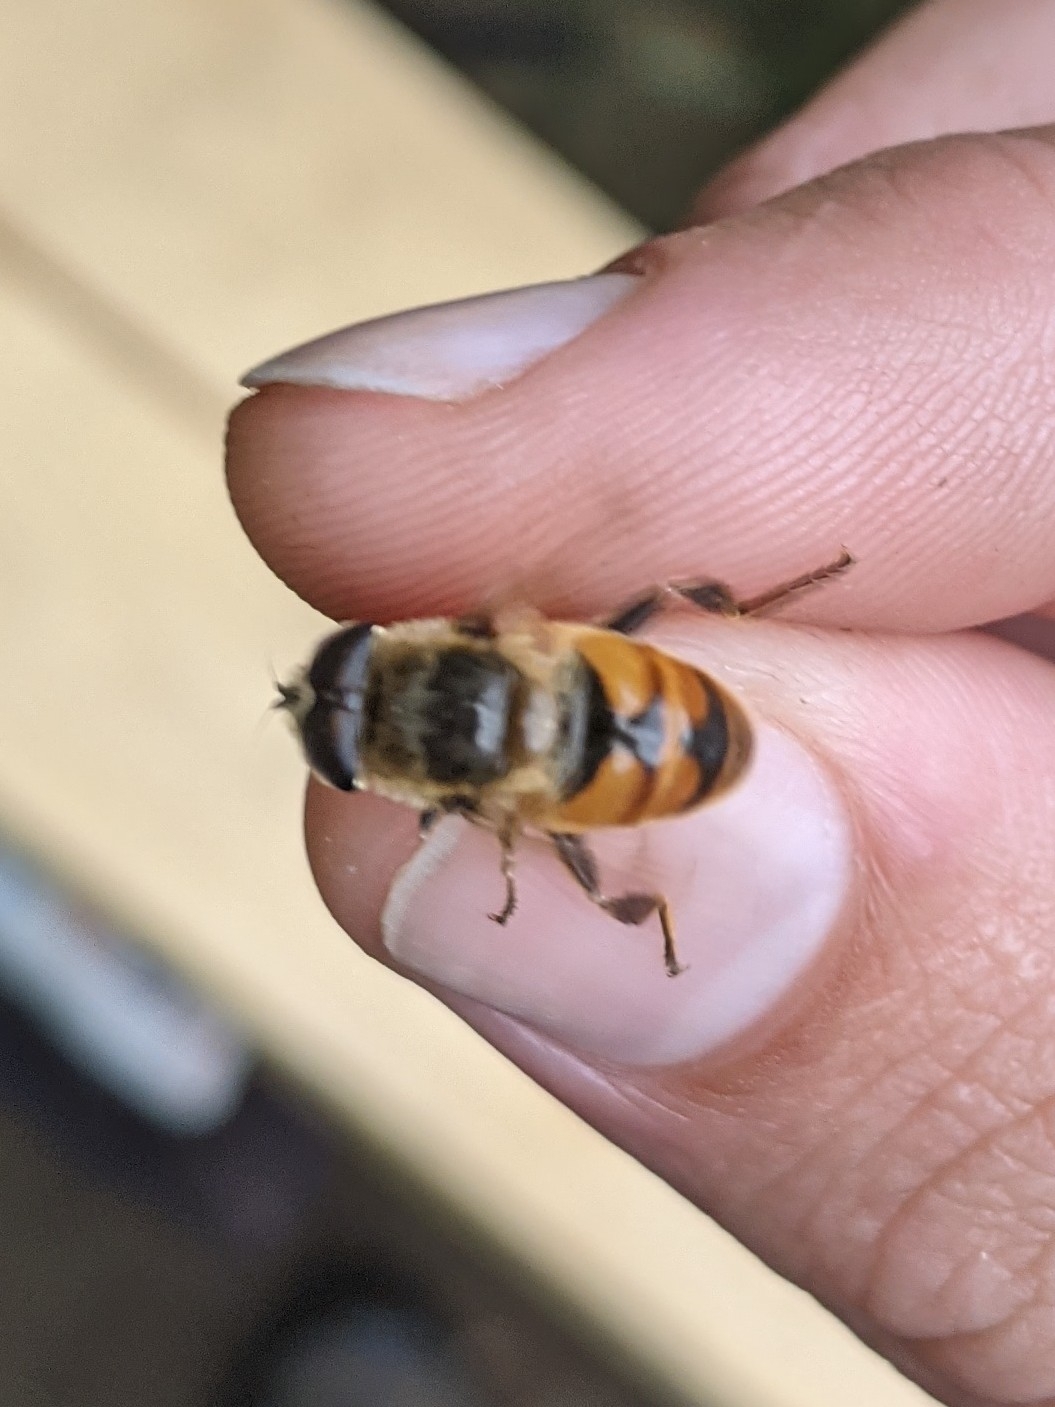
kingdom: Animalia
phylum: Arthropoda
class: Insecta
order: Diptera
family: Syrphidae
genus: Eristalis
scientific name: Eristalis tenax
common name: Drone fly
